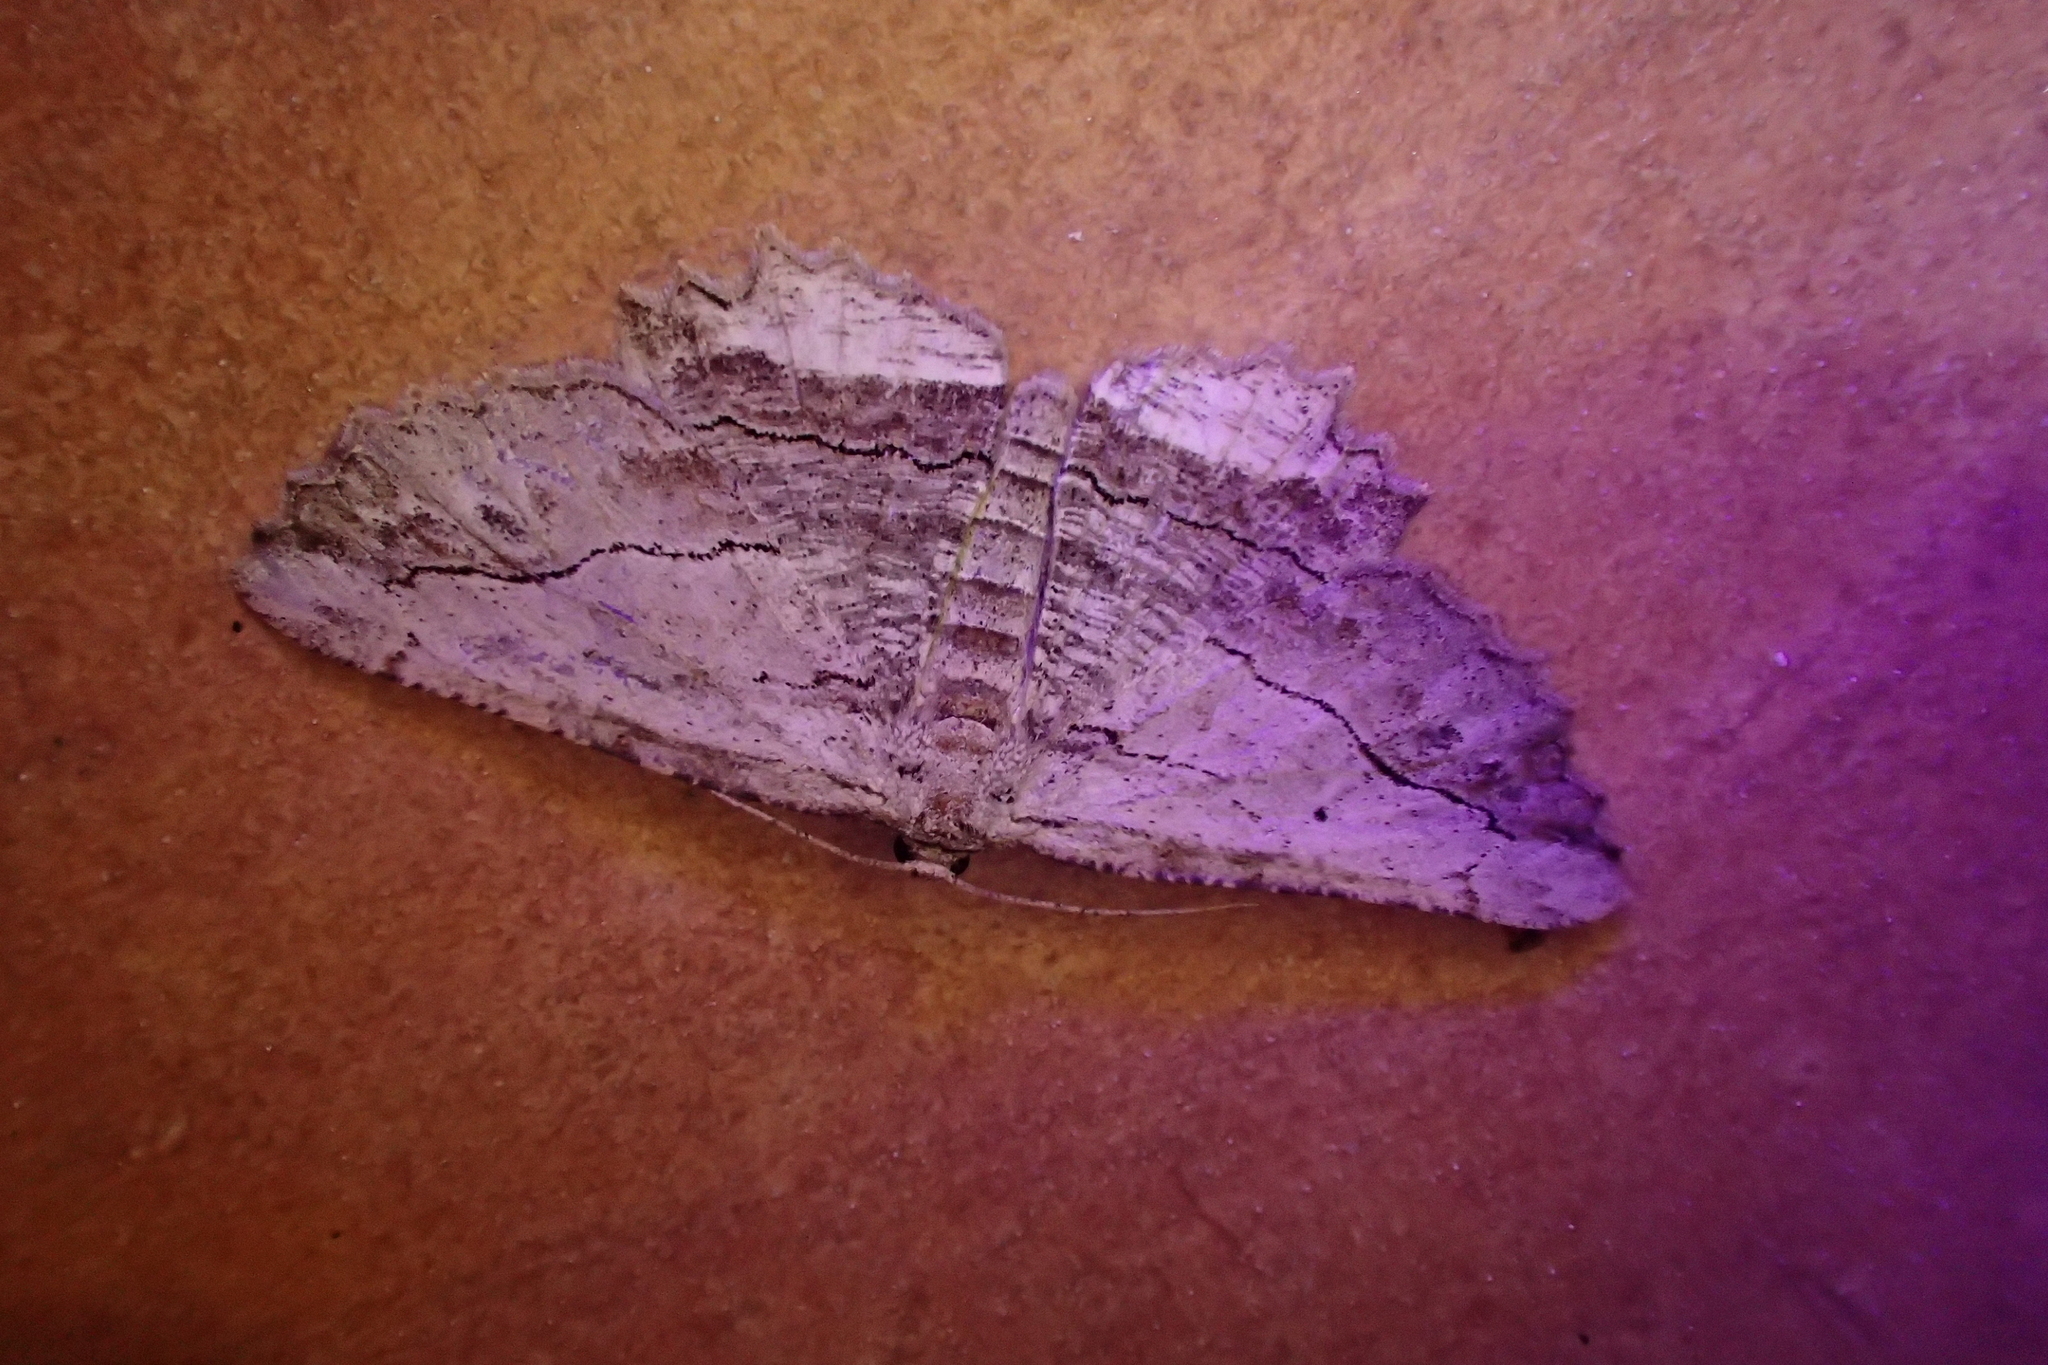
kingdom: Animalia
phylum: Arthropoda
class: Insecta
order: Lepidoptera
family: Geometridae
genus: Menophra
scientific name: Menophra abruptaria
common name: Waved umber
